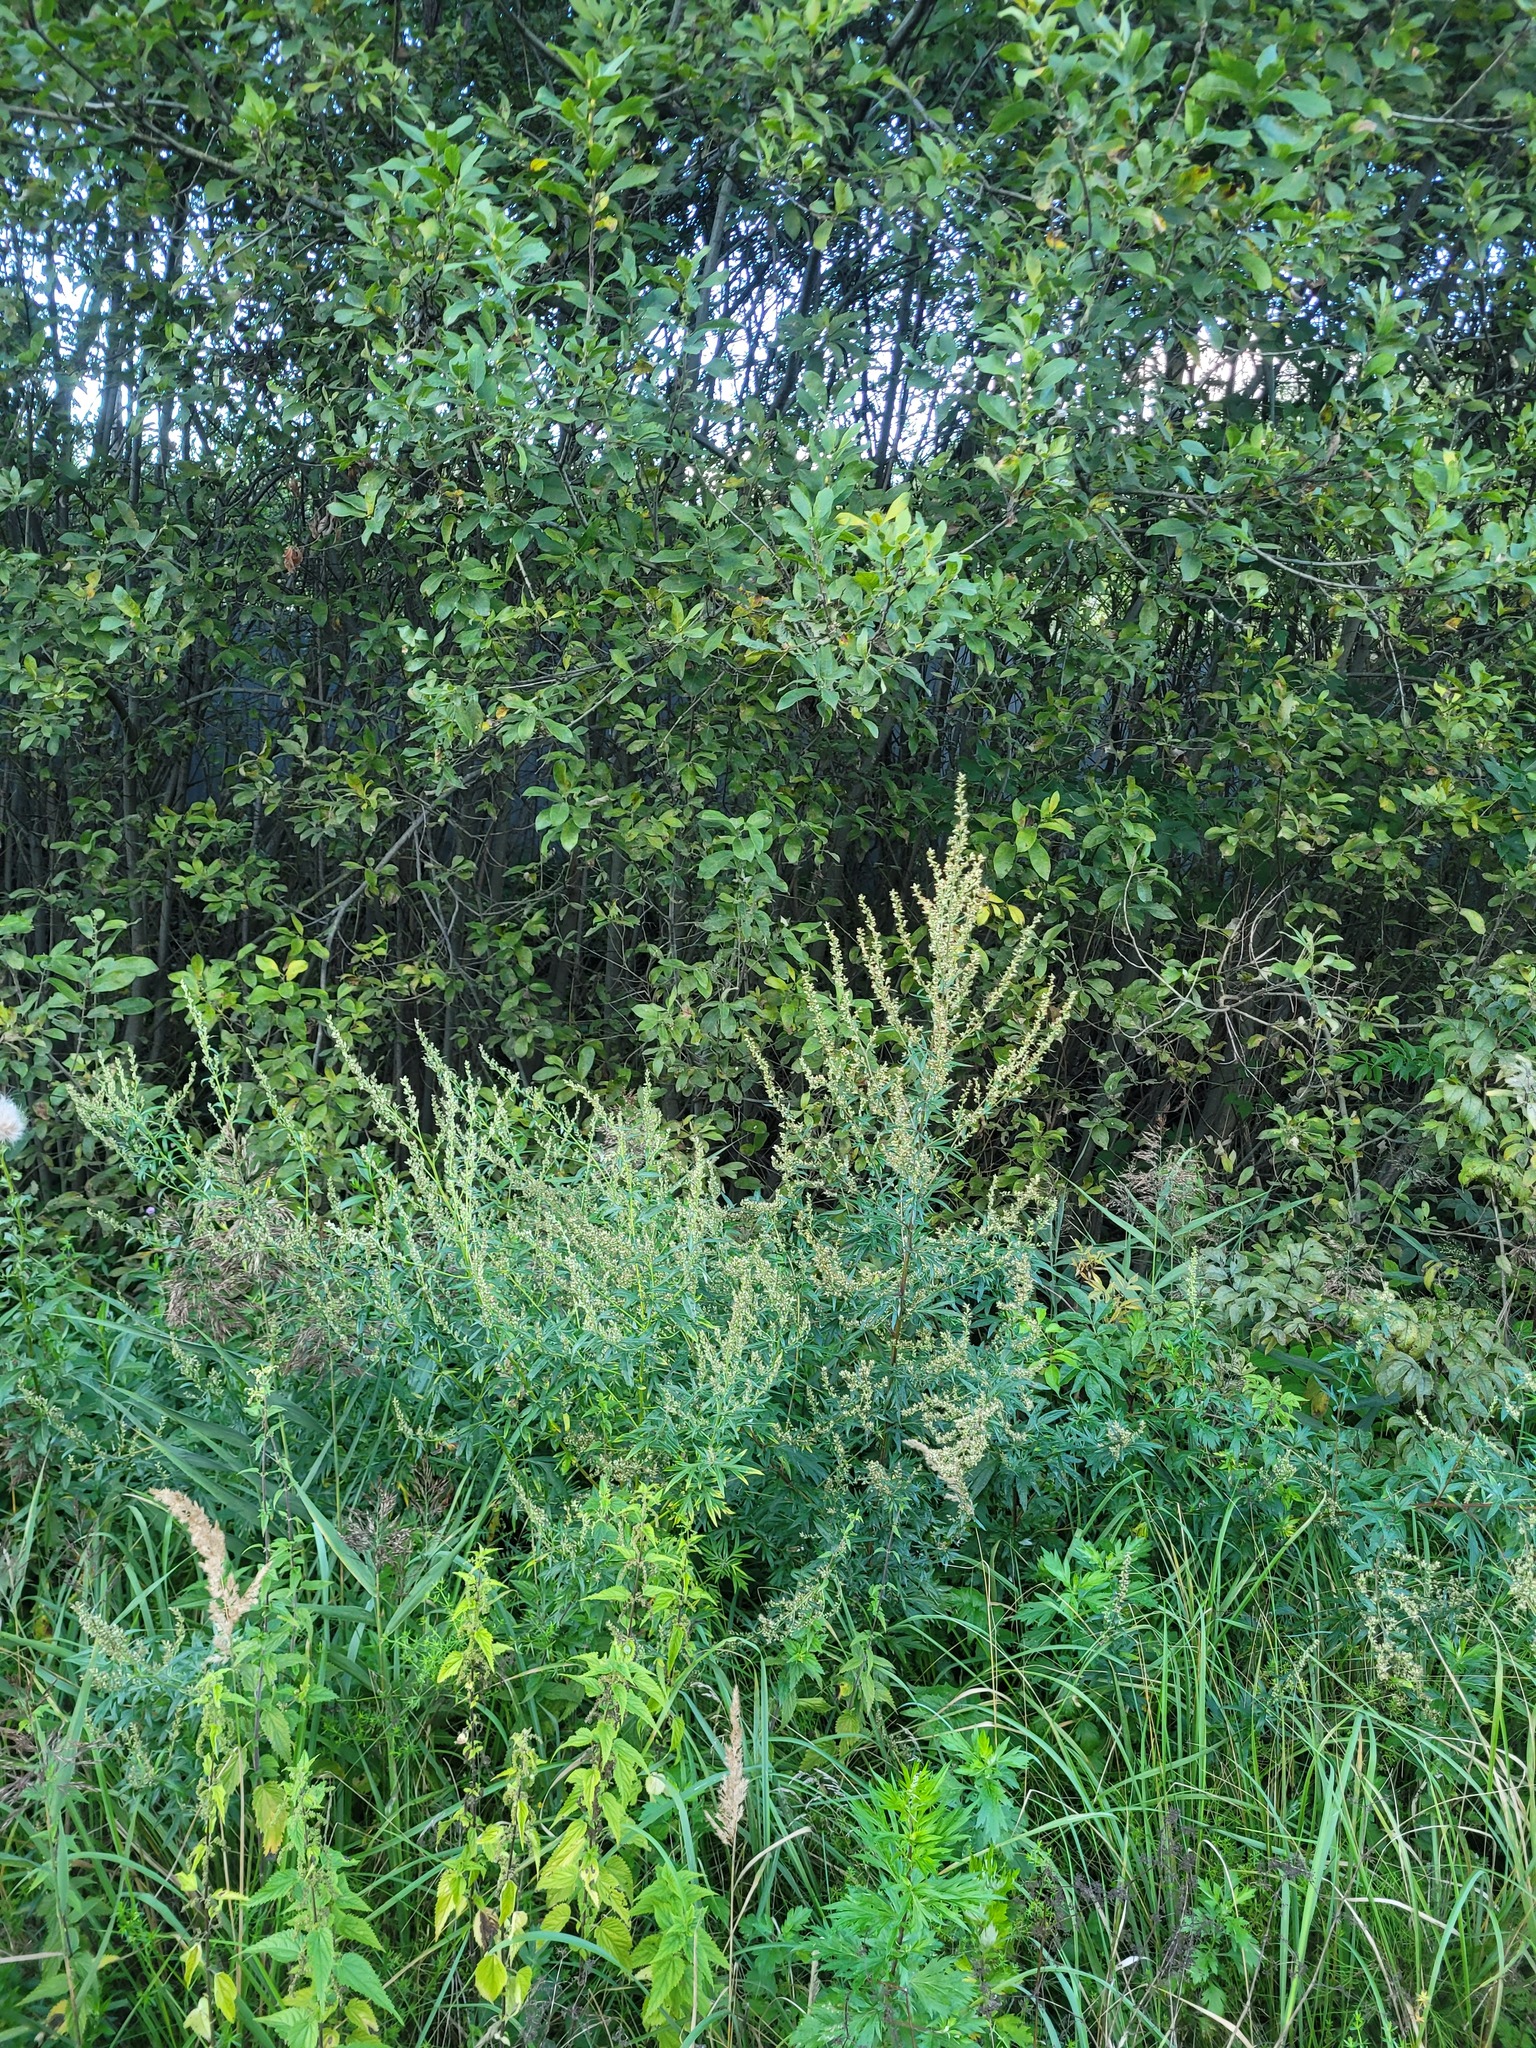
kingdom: Plantae
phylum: Tracheophyta
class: Magnoliopsida
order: Asterales
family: Asteraceae
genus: Artemisia
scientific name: Artemisia vulgaris
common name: Mugwort
